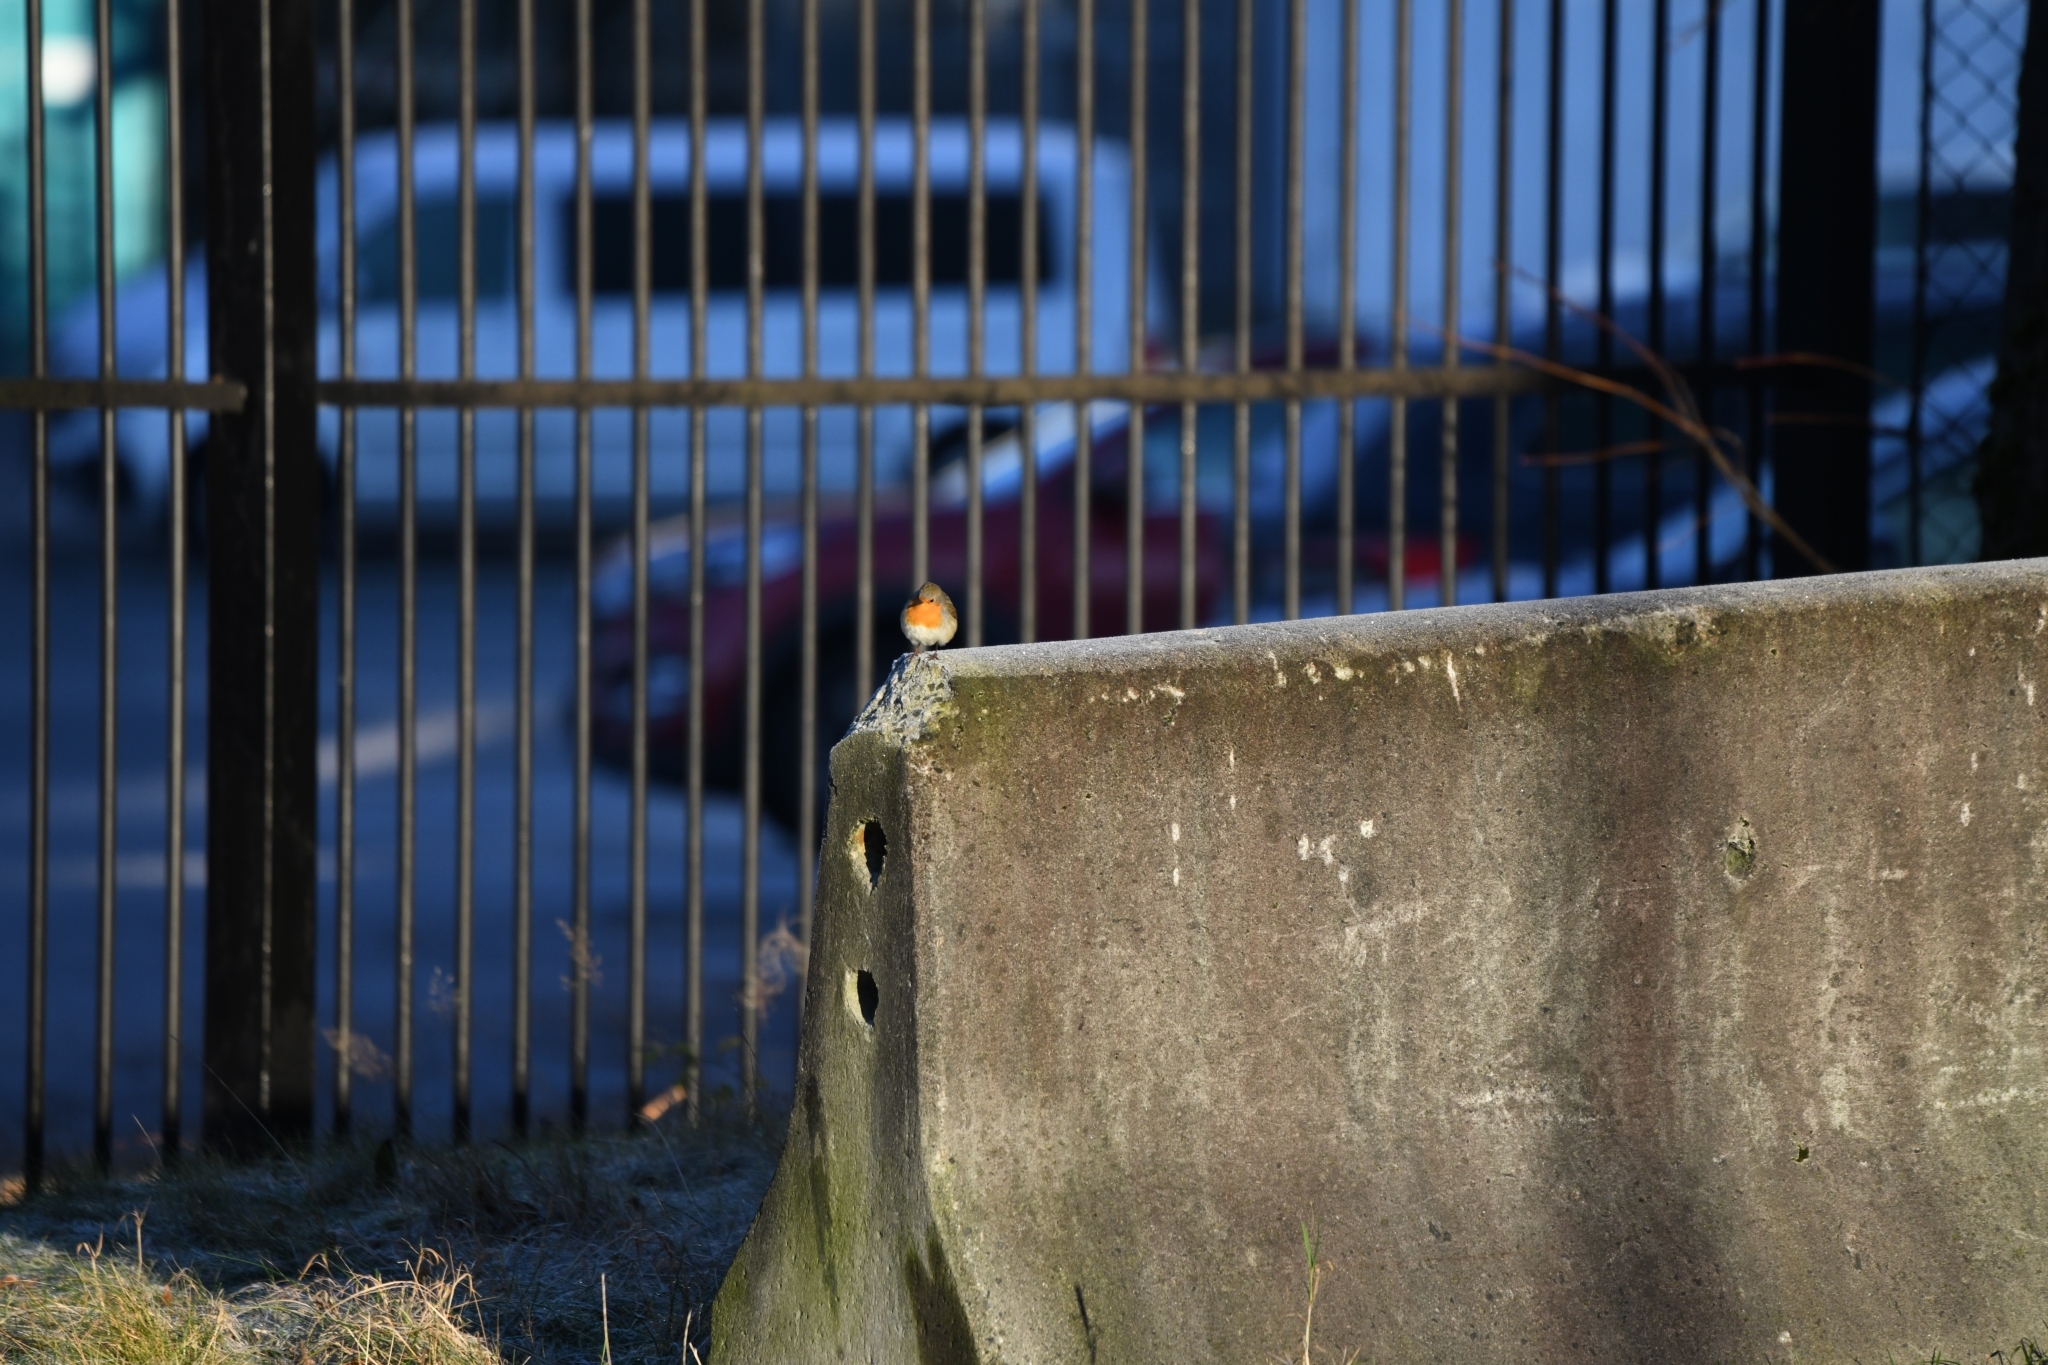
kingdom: Animalia
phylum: Chordata
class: Aves
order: Passeriformes
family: Muscicapidae
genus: Erithacus
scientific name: Erithacus rubecula
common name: European robin
